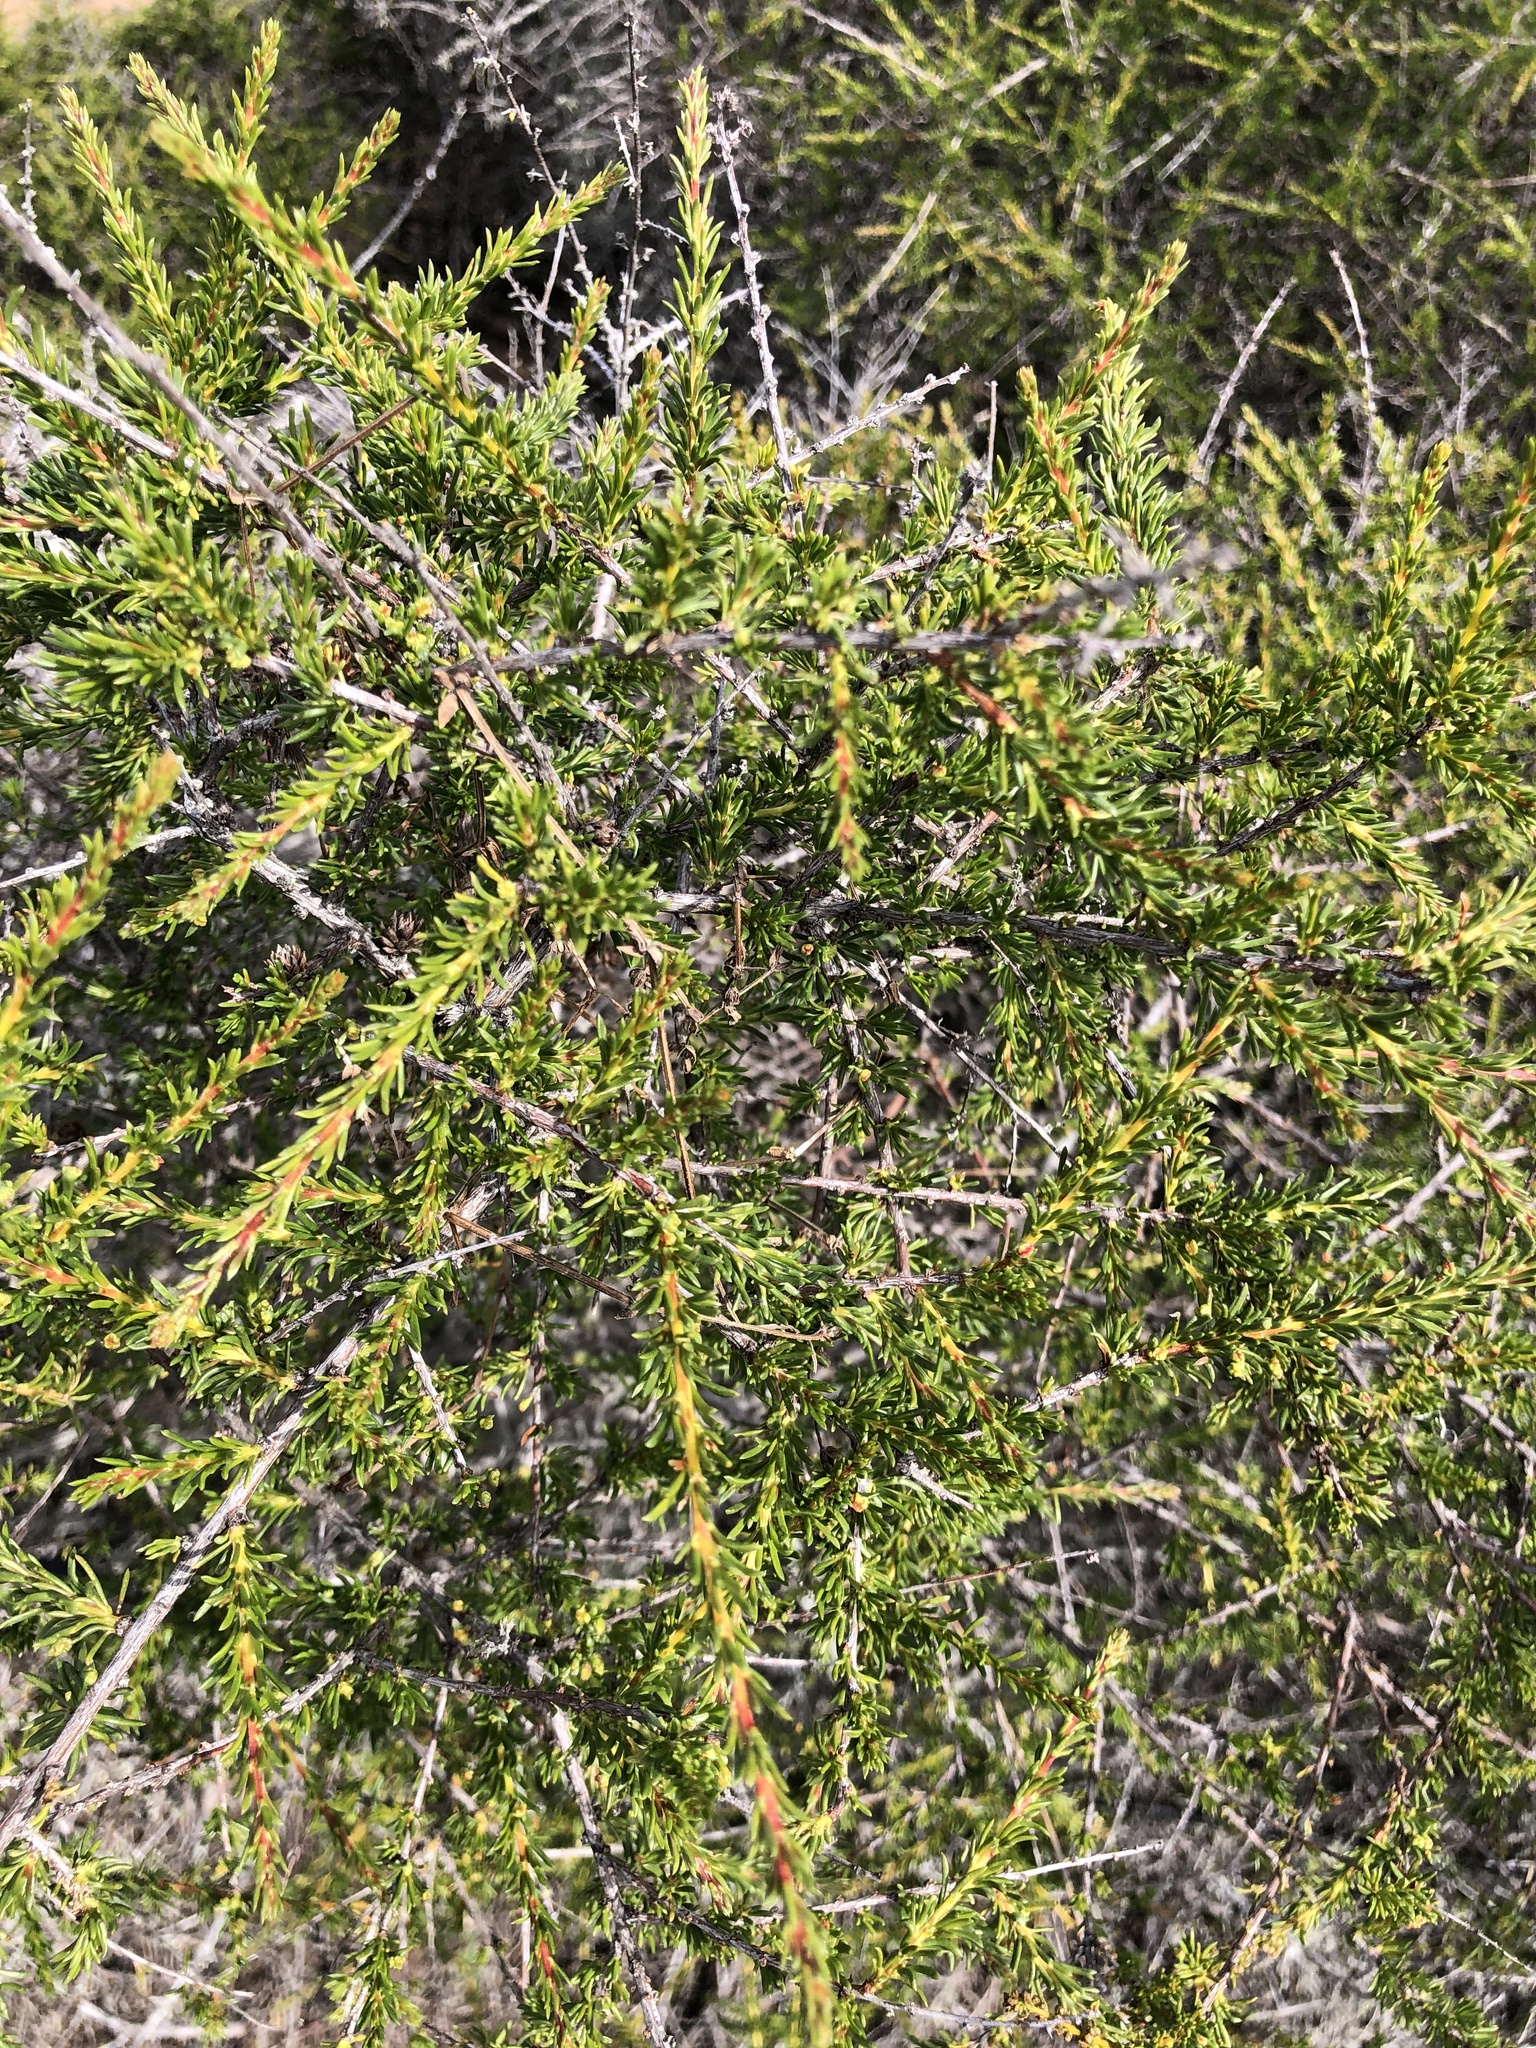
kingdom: Plantae
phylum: Tracheophyta
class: Magnoliopsida
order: Rosales
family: Rosaceae
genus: Adenostoma
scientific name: Adenostoma fasciculatum
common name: Chamise
